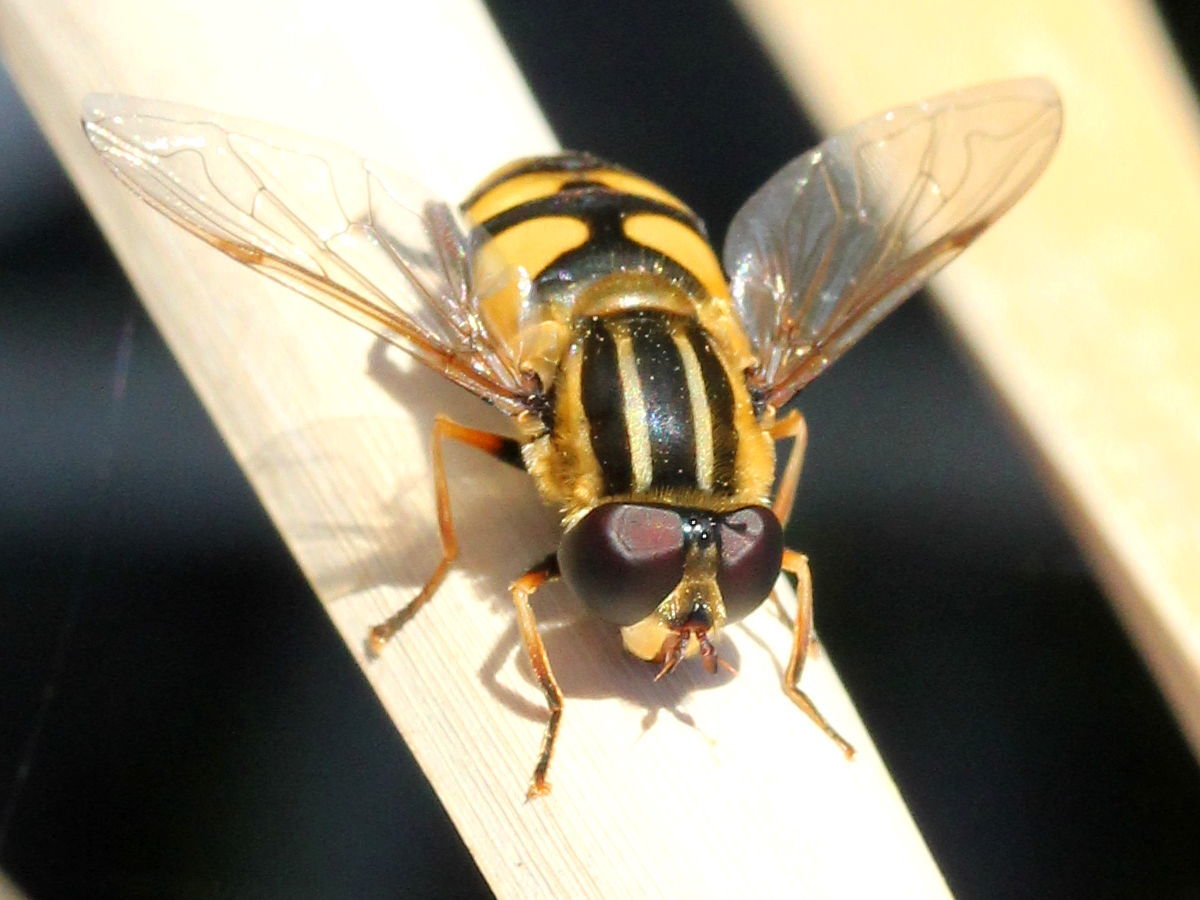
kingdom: Animalia
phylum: Arthropoda
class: Insecta
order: Diptera
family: Syrphidae
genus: Helophilus
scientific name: Helophilus fasciatus
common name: Narrow-headed marsh fly
